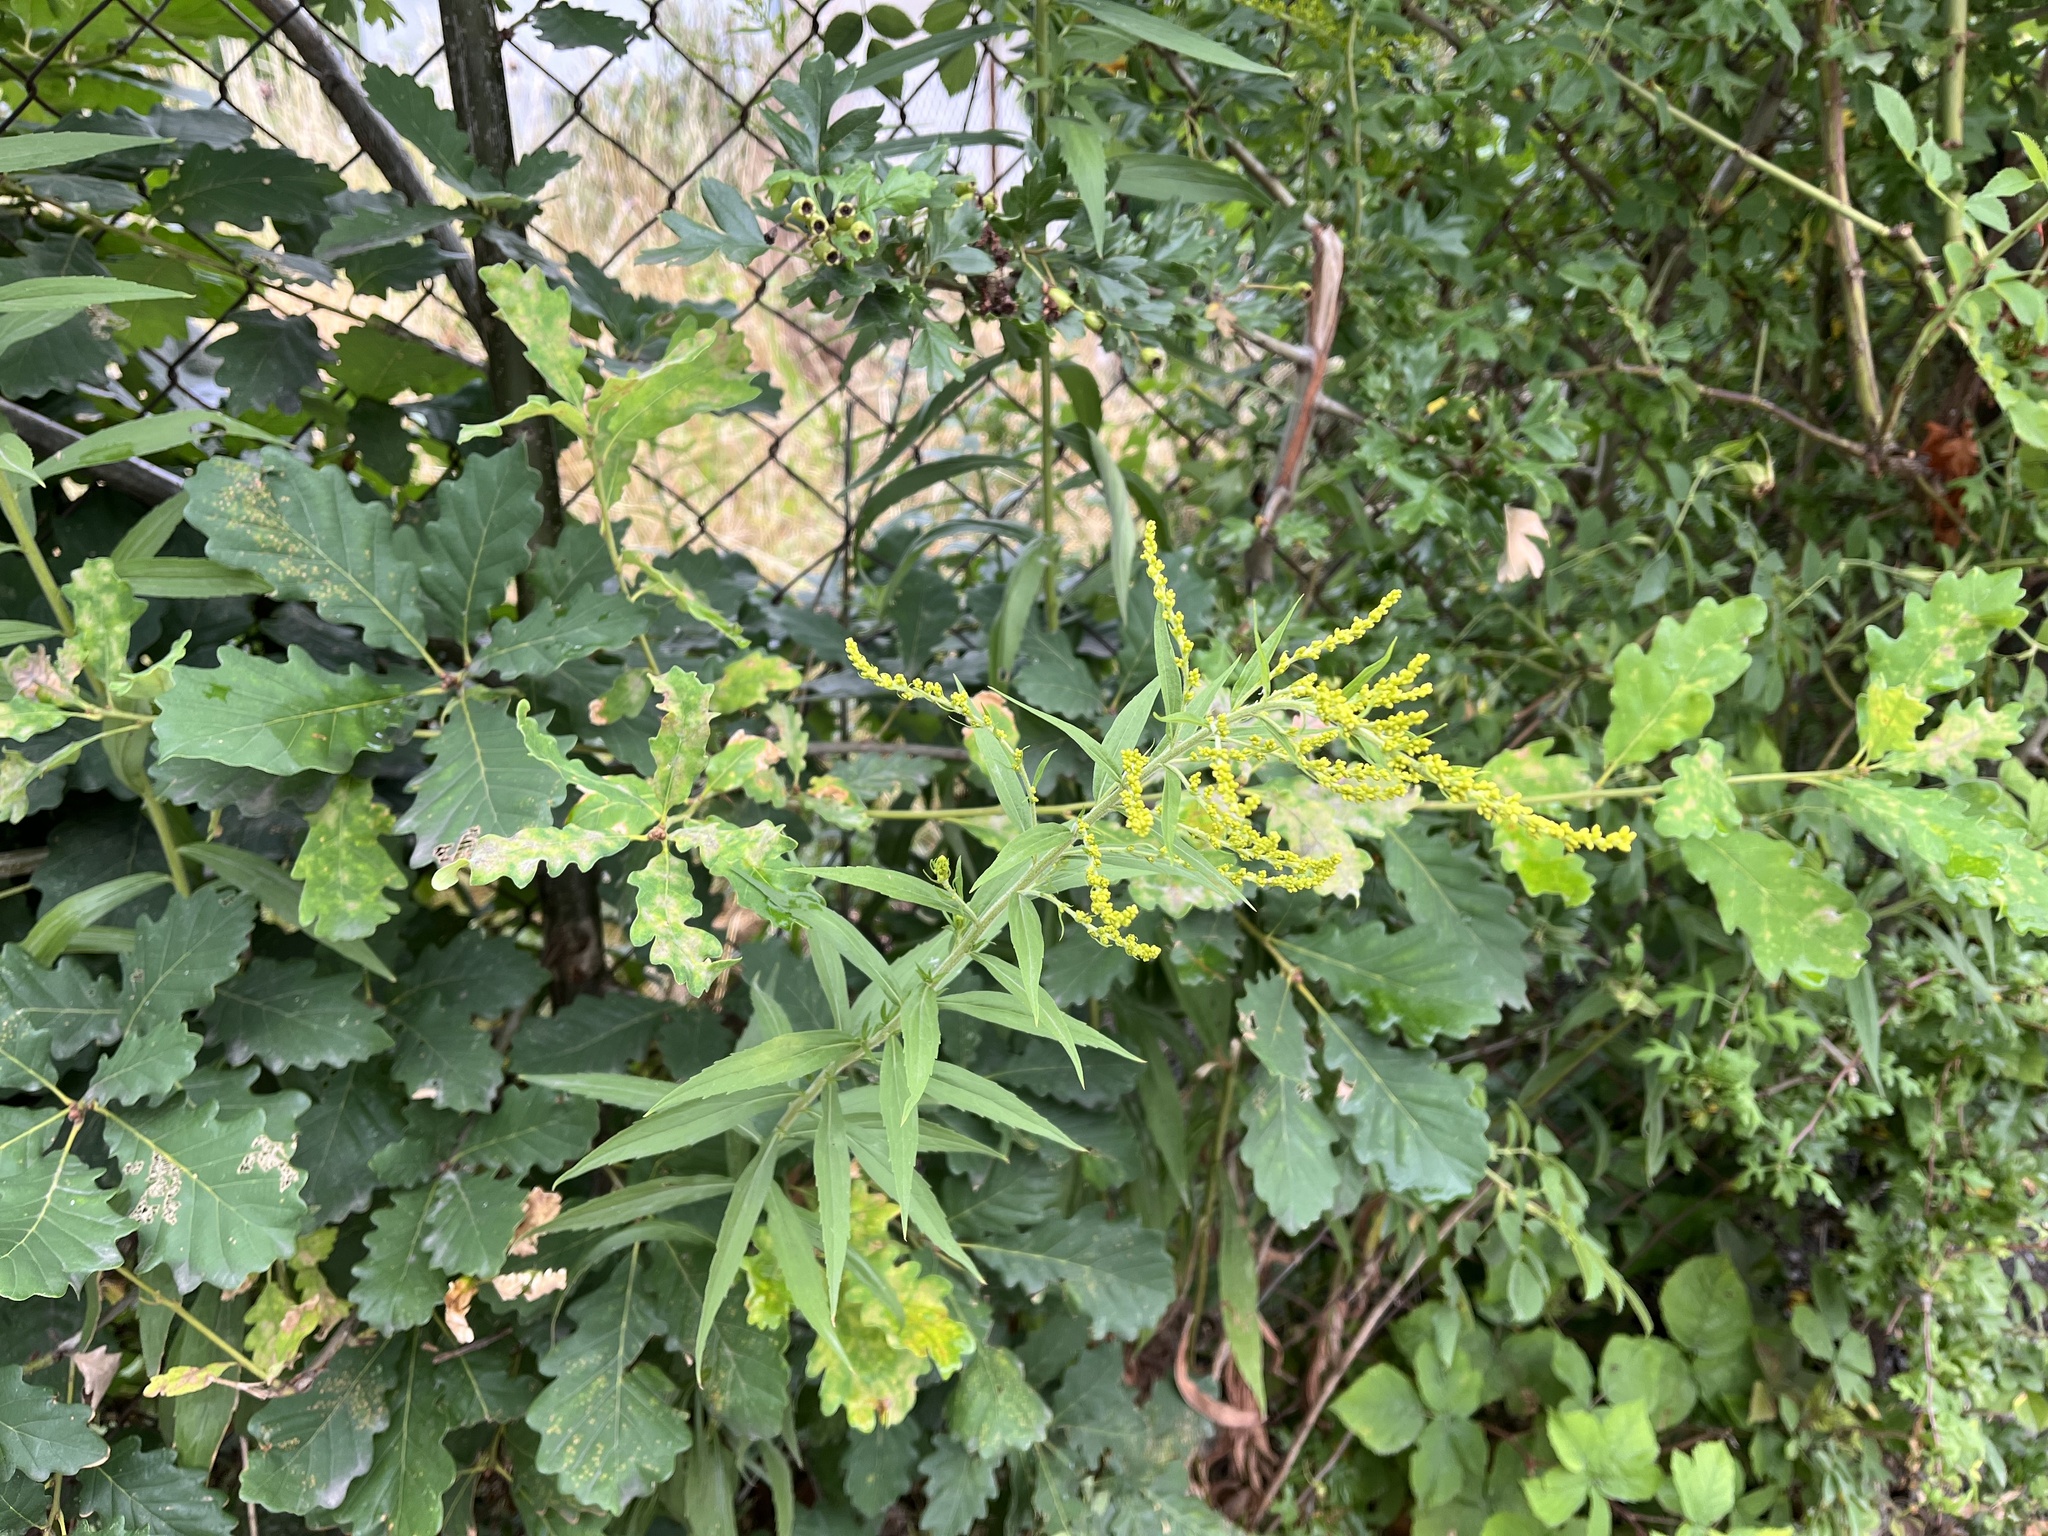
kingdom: Plantae
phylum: Tracheophyta
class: Magnoliopsida
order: Asterales
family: Asteraceae
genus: Solidago
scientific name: Solidago canadensis
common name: Canada goldenrod
